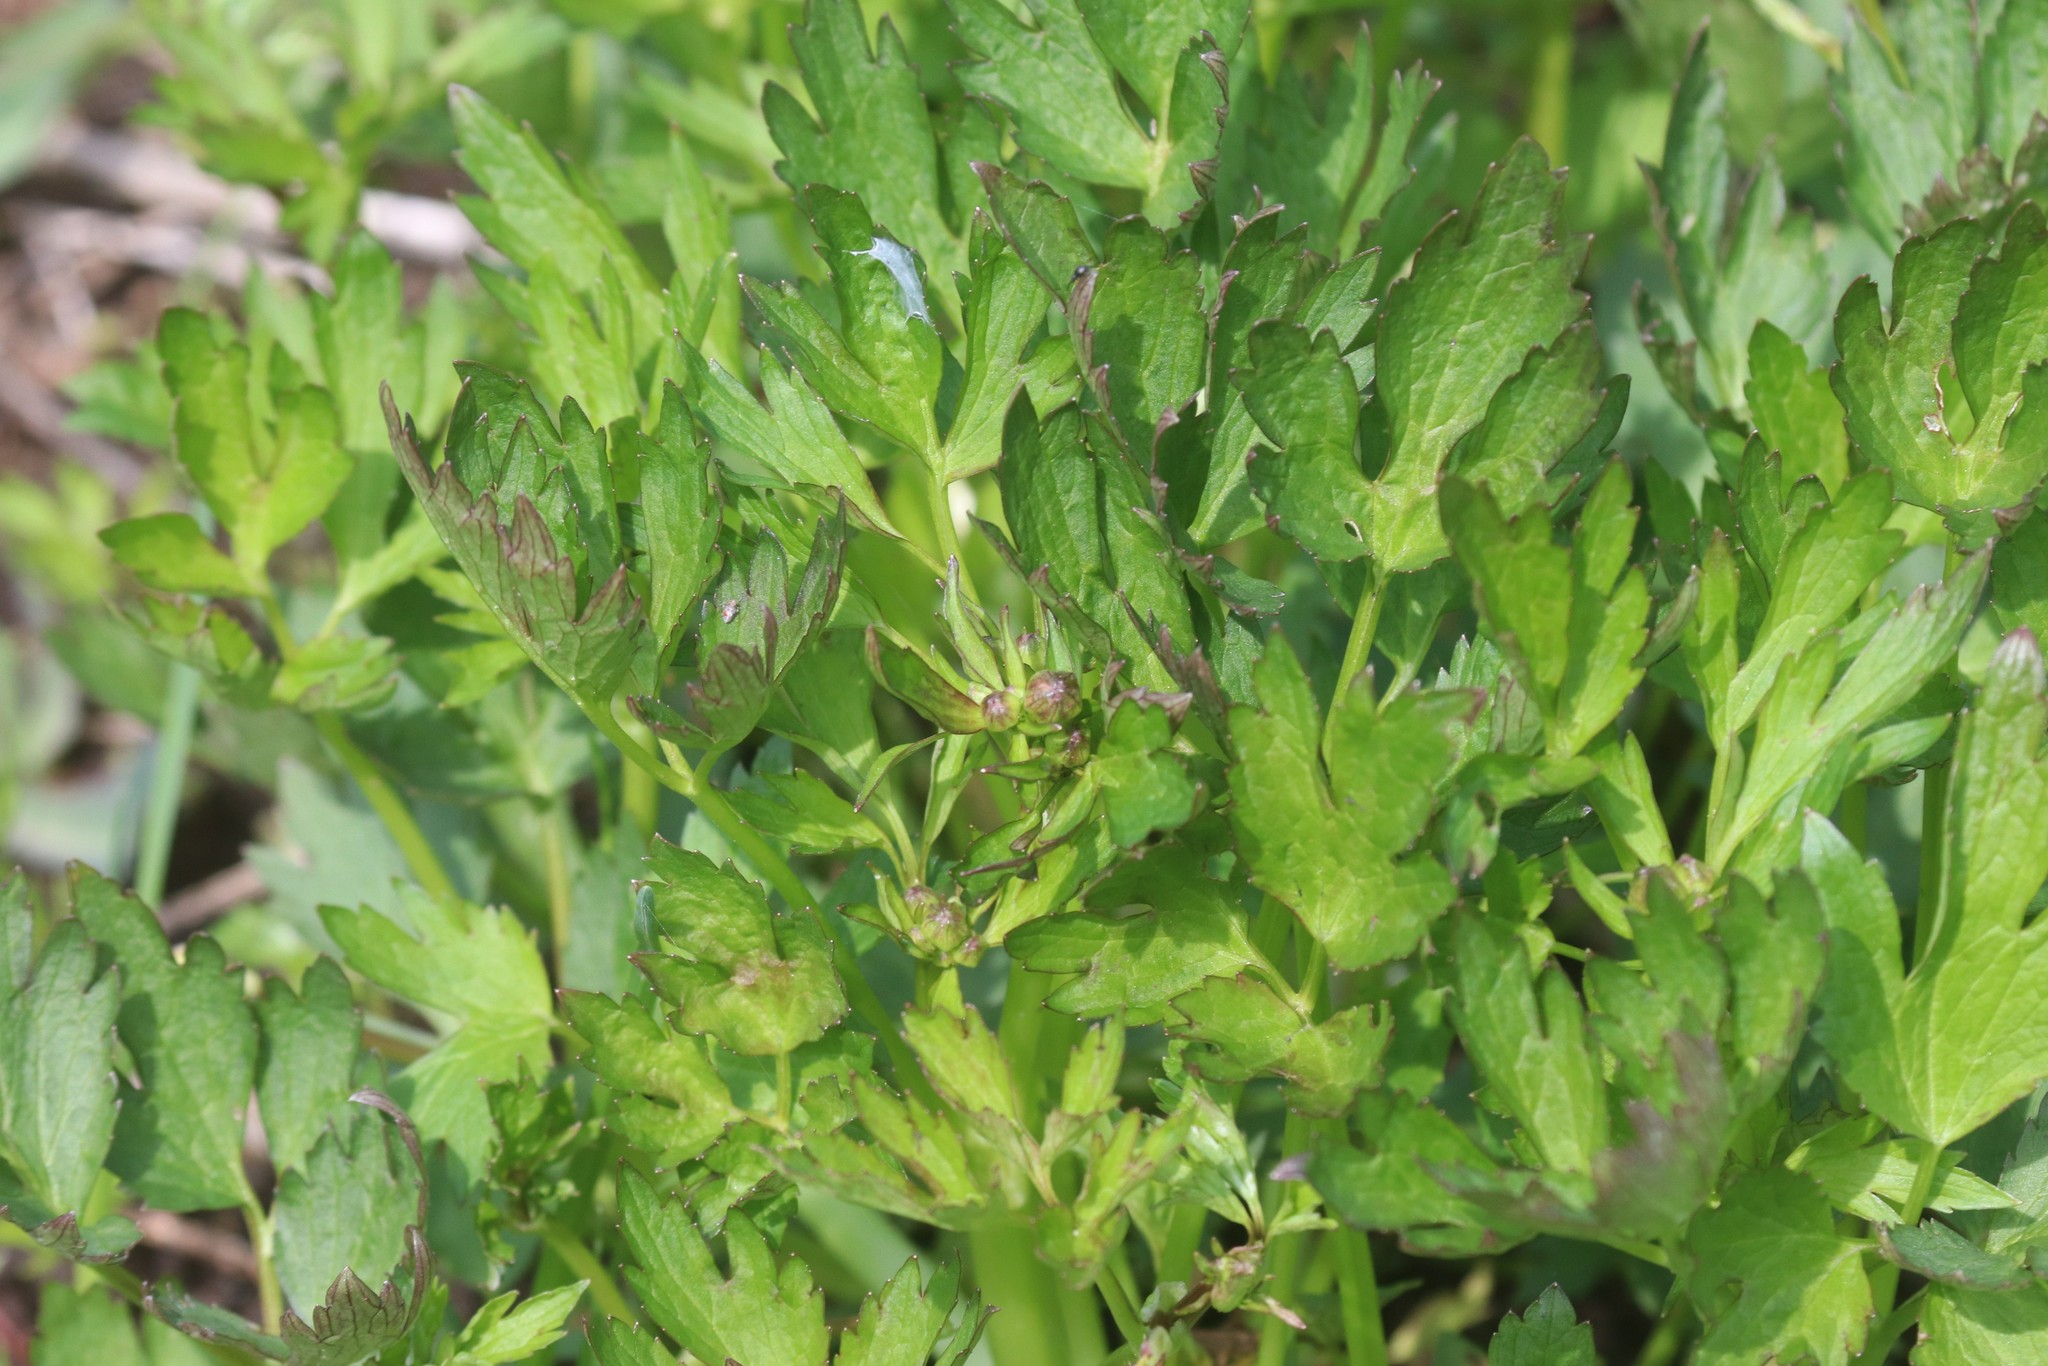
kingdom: Plantae
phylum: Tracheophyta
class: Magnoliopsida
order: Ranunculales
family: Ranunculaceae
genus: Ranunculus
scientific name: Ranunculus repens
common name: Creeping buttercup
